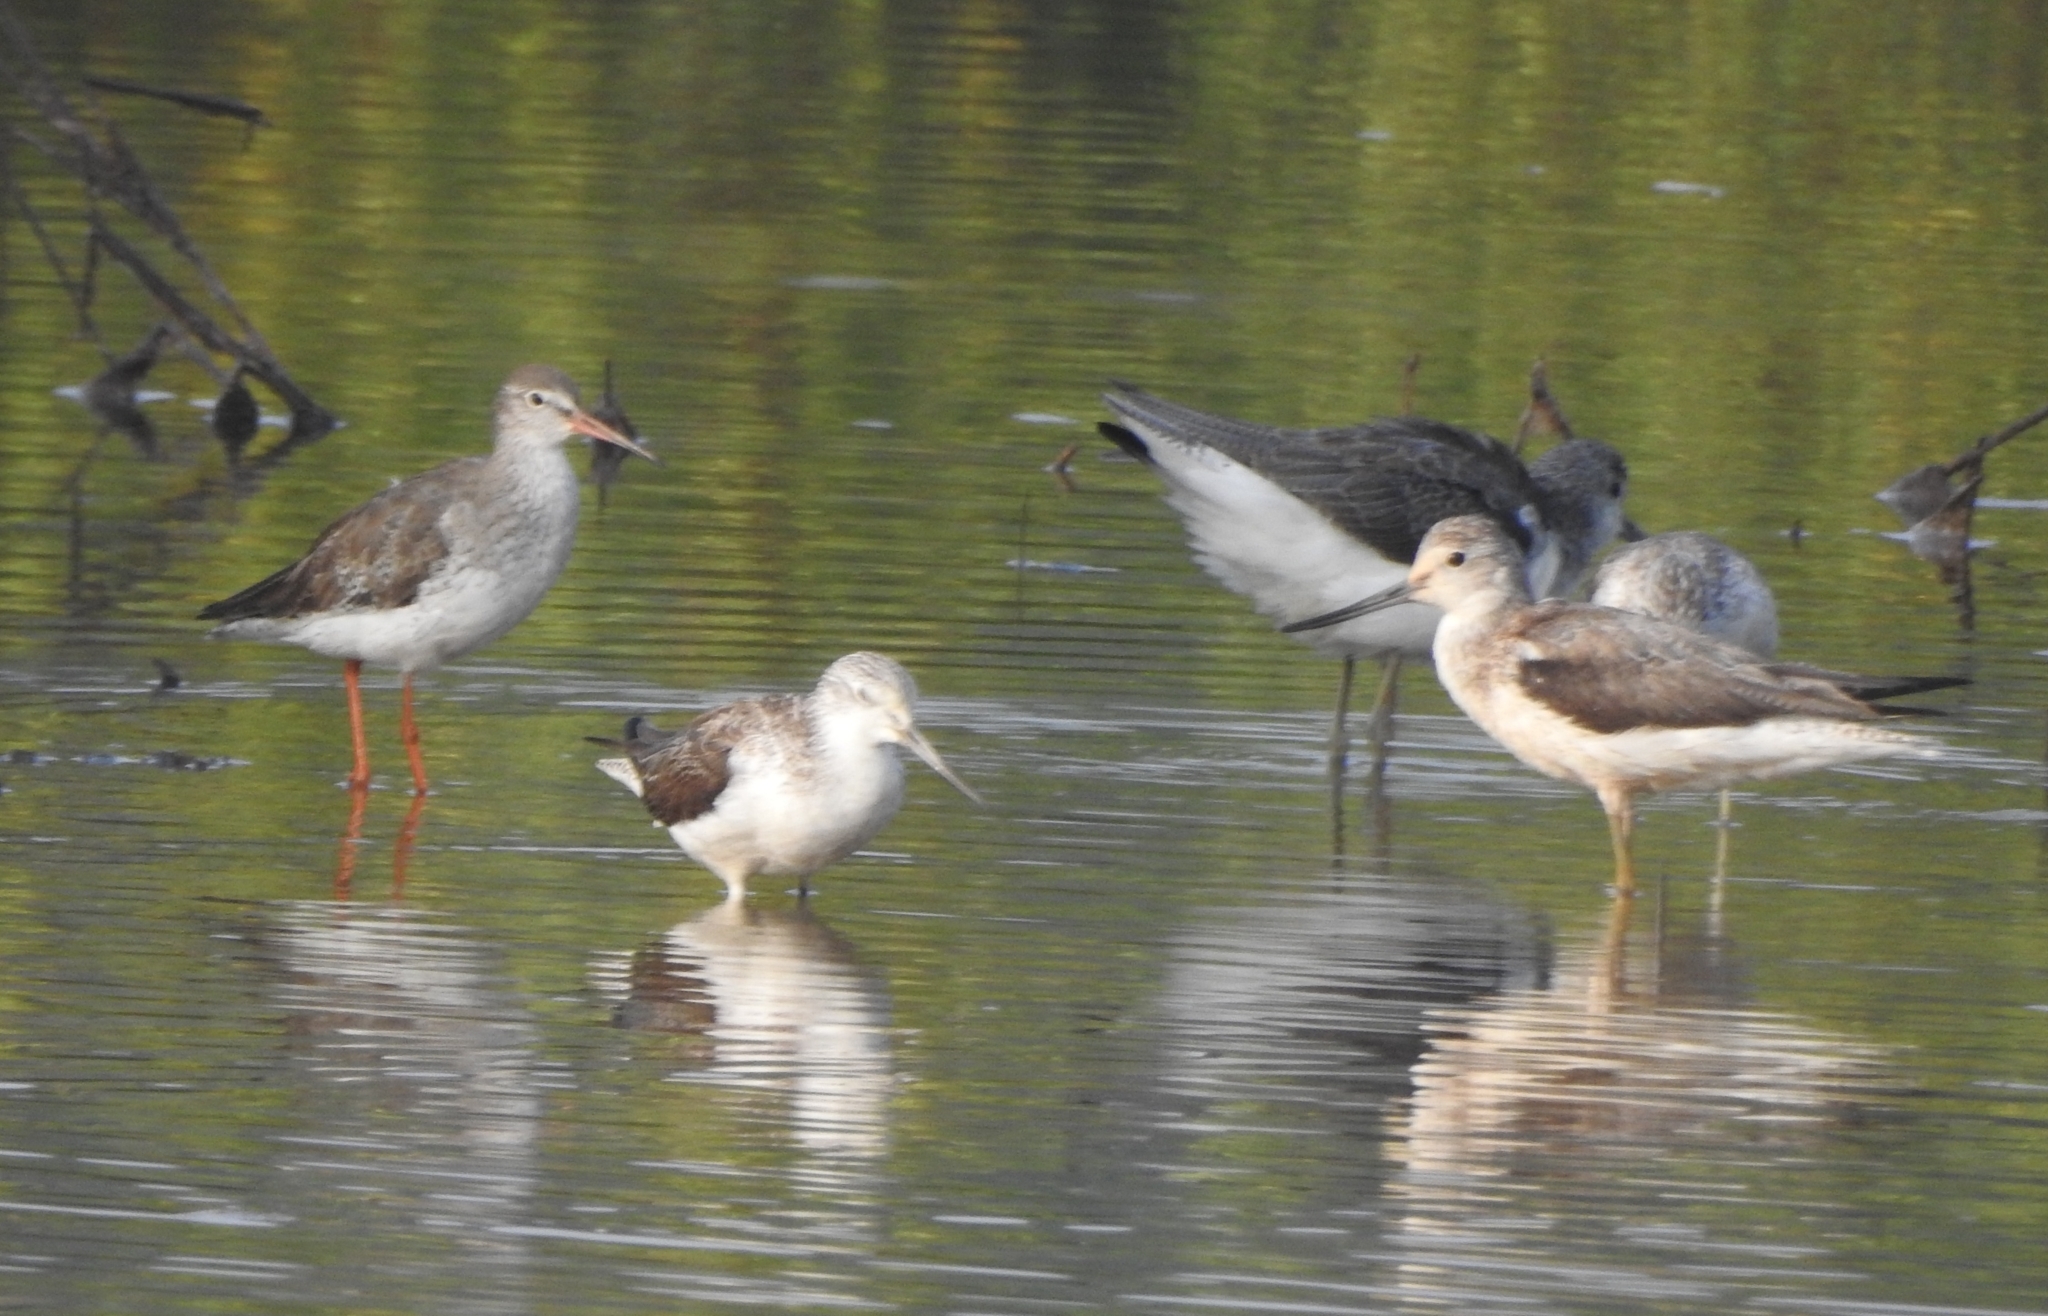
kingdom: Animalia
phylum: Chordata
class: Aves
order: Charadriiformes
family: Scolopacidae
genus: Tringa
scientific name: Tringa nebularia
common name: Common greenshank
